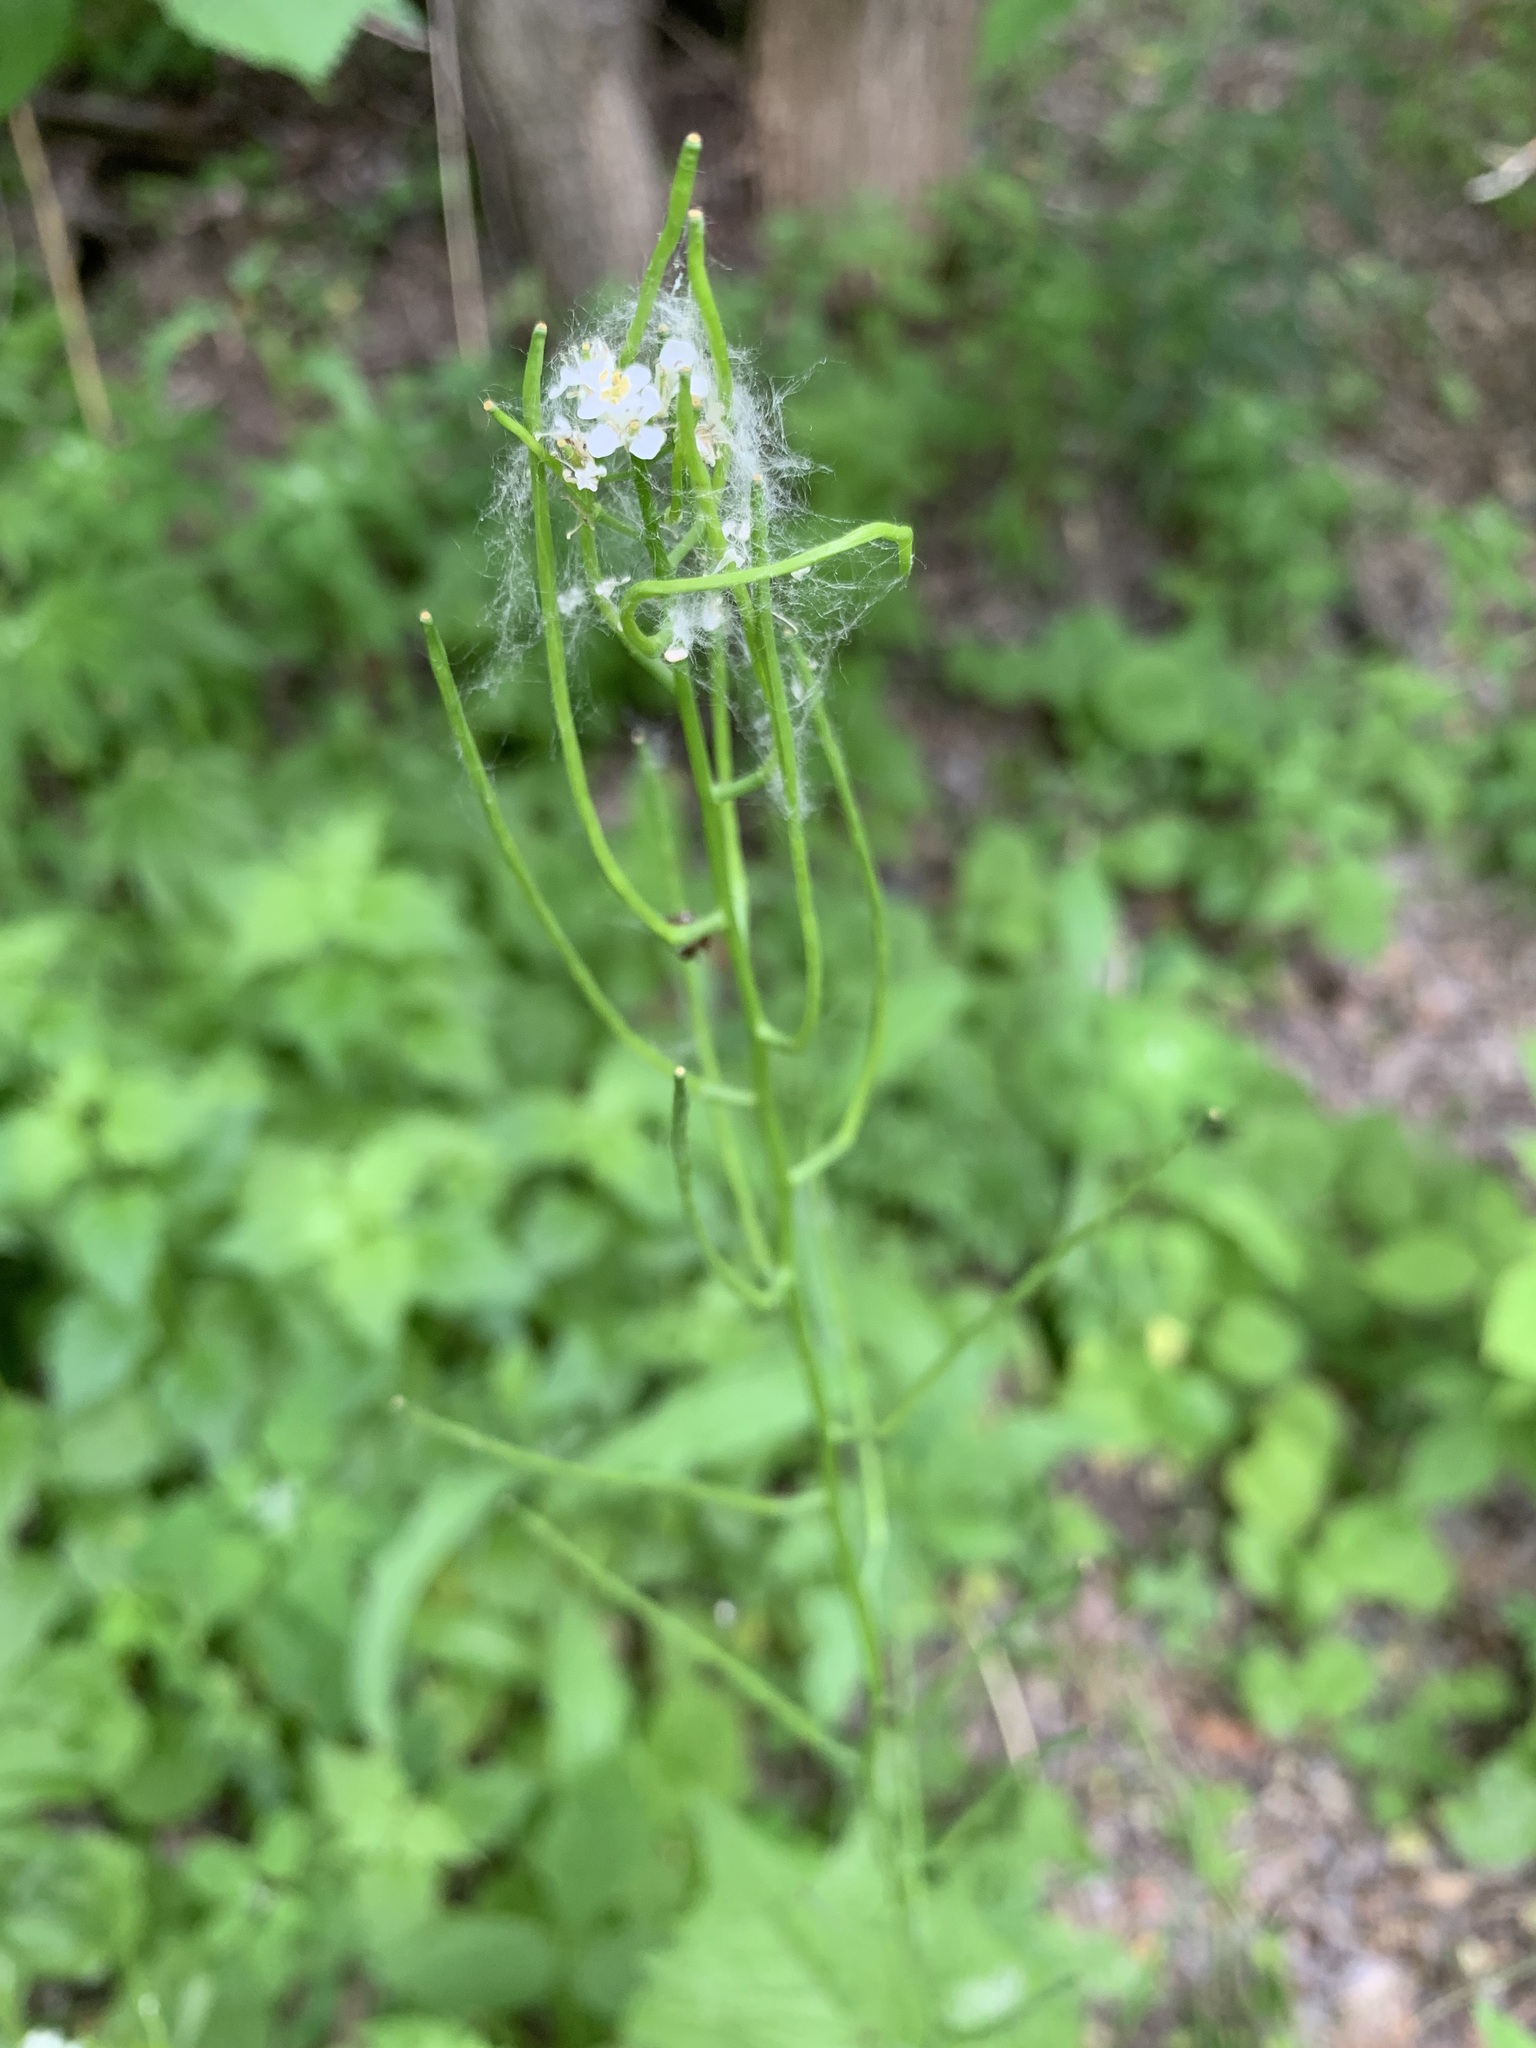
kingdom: Plantae
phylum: Tracheophyta
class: Magnoliopsida
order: Brassicales
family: Brassicaceae
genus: Alliaria
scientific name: Alliaria petiolata
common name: Garlic mustard
